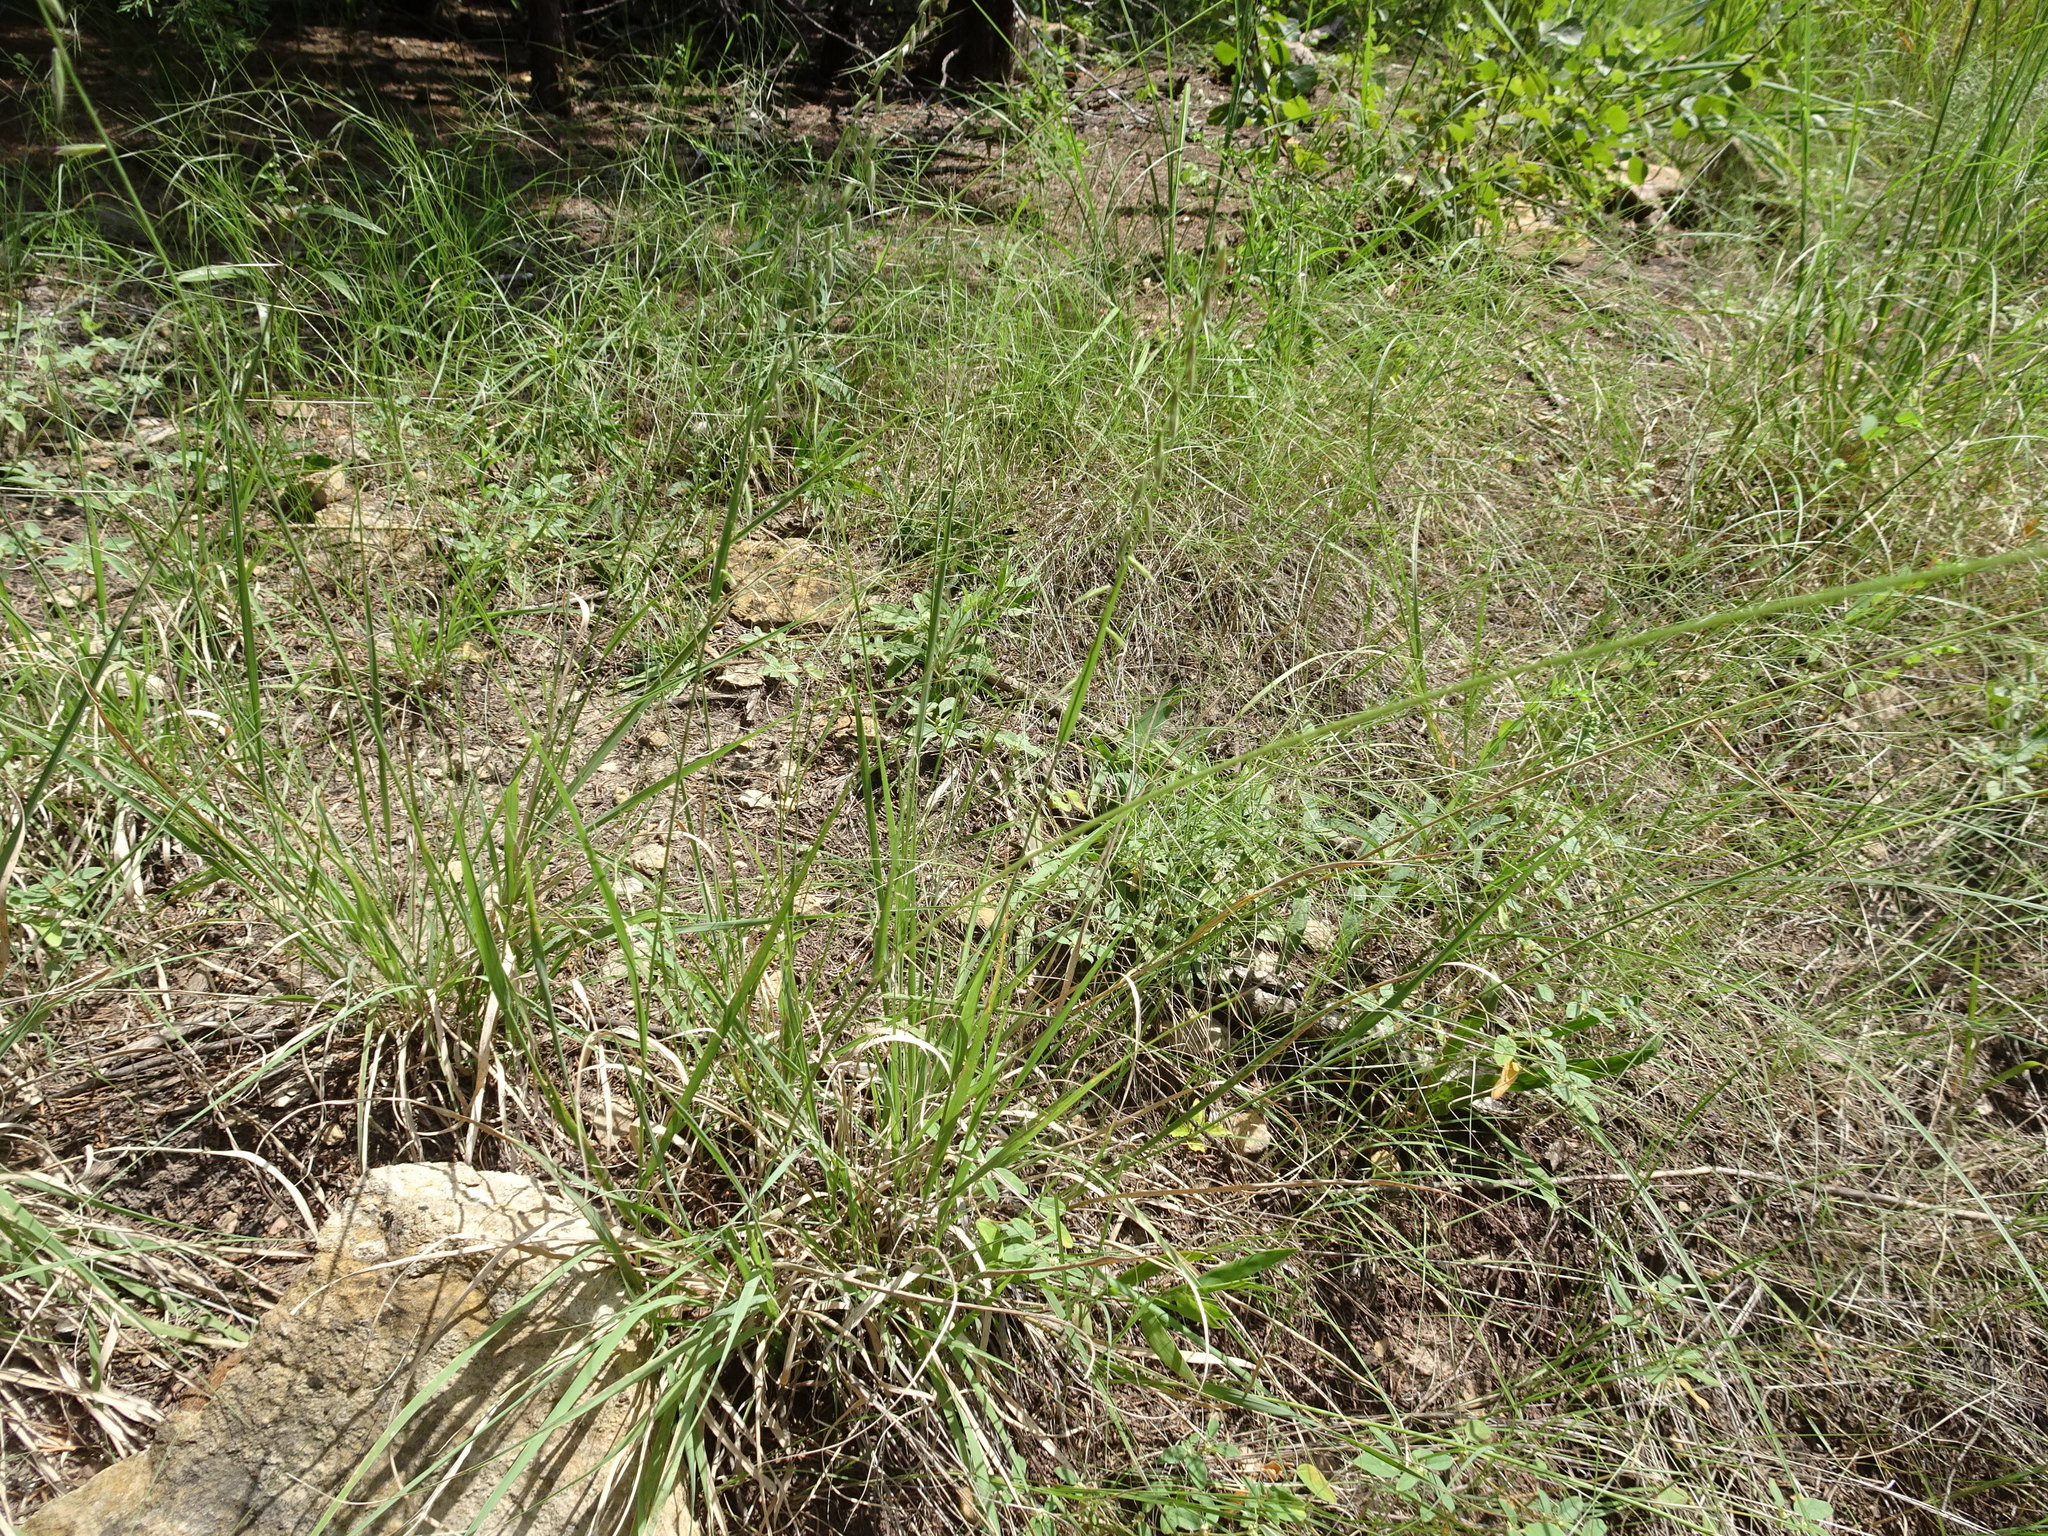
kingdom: Plantae
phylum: Tracheophyta
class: Liliopsida
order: Poales
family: Poaceae
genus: Bouteloua
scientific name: Bouteloua curtipendula
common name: Side-oats grama
